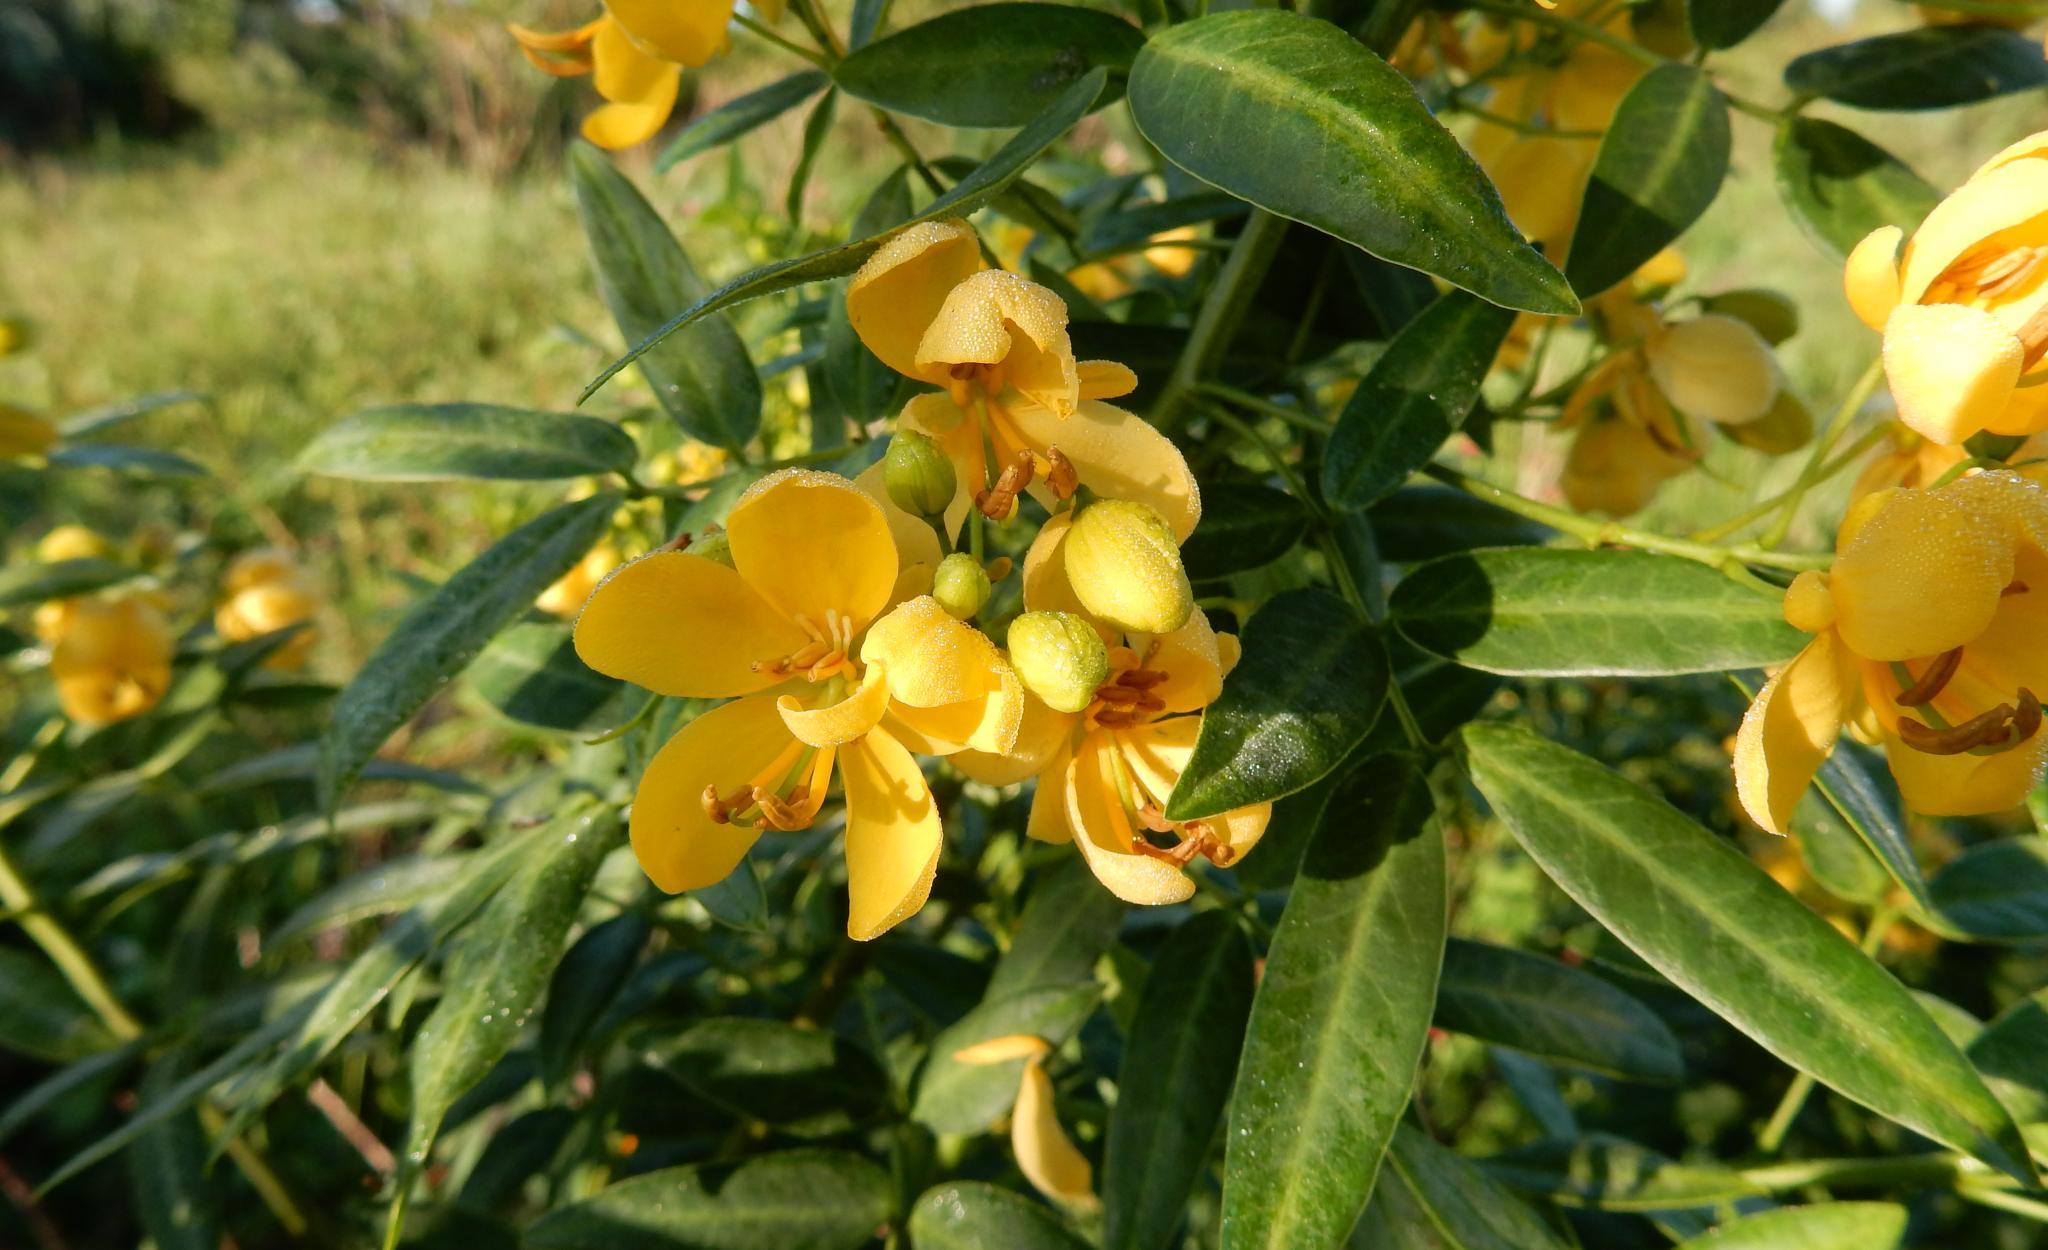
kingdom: Plantae
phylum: Tracheophyta
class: Magnoliopsida
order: Fabales
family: Fabaceae
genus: Senna
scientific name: Senna corymbosa
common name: Argentine senna
